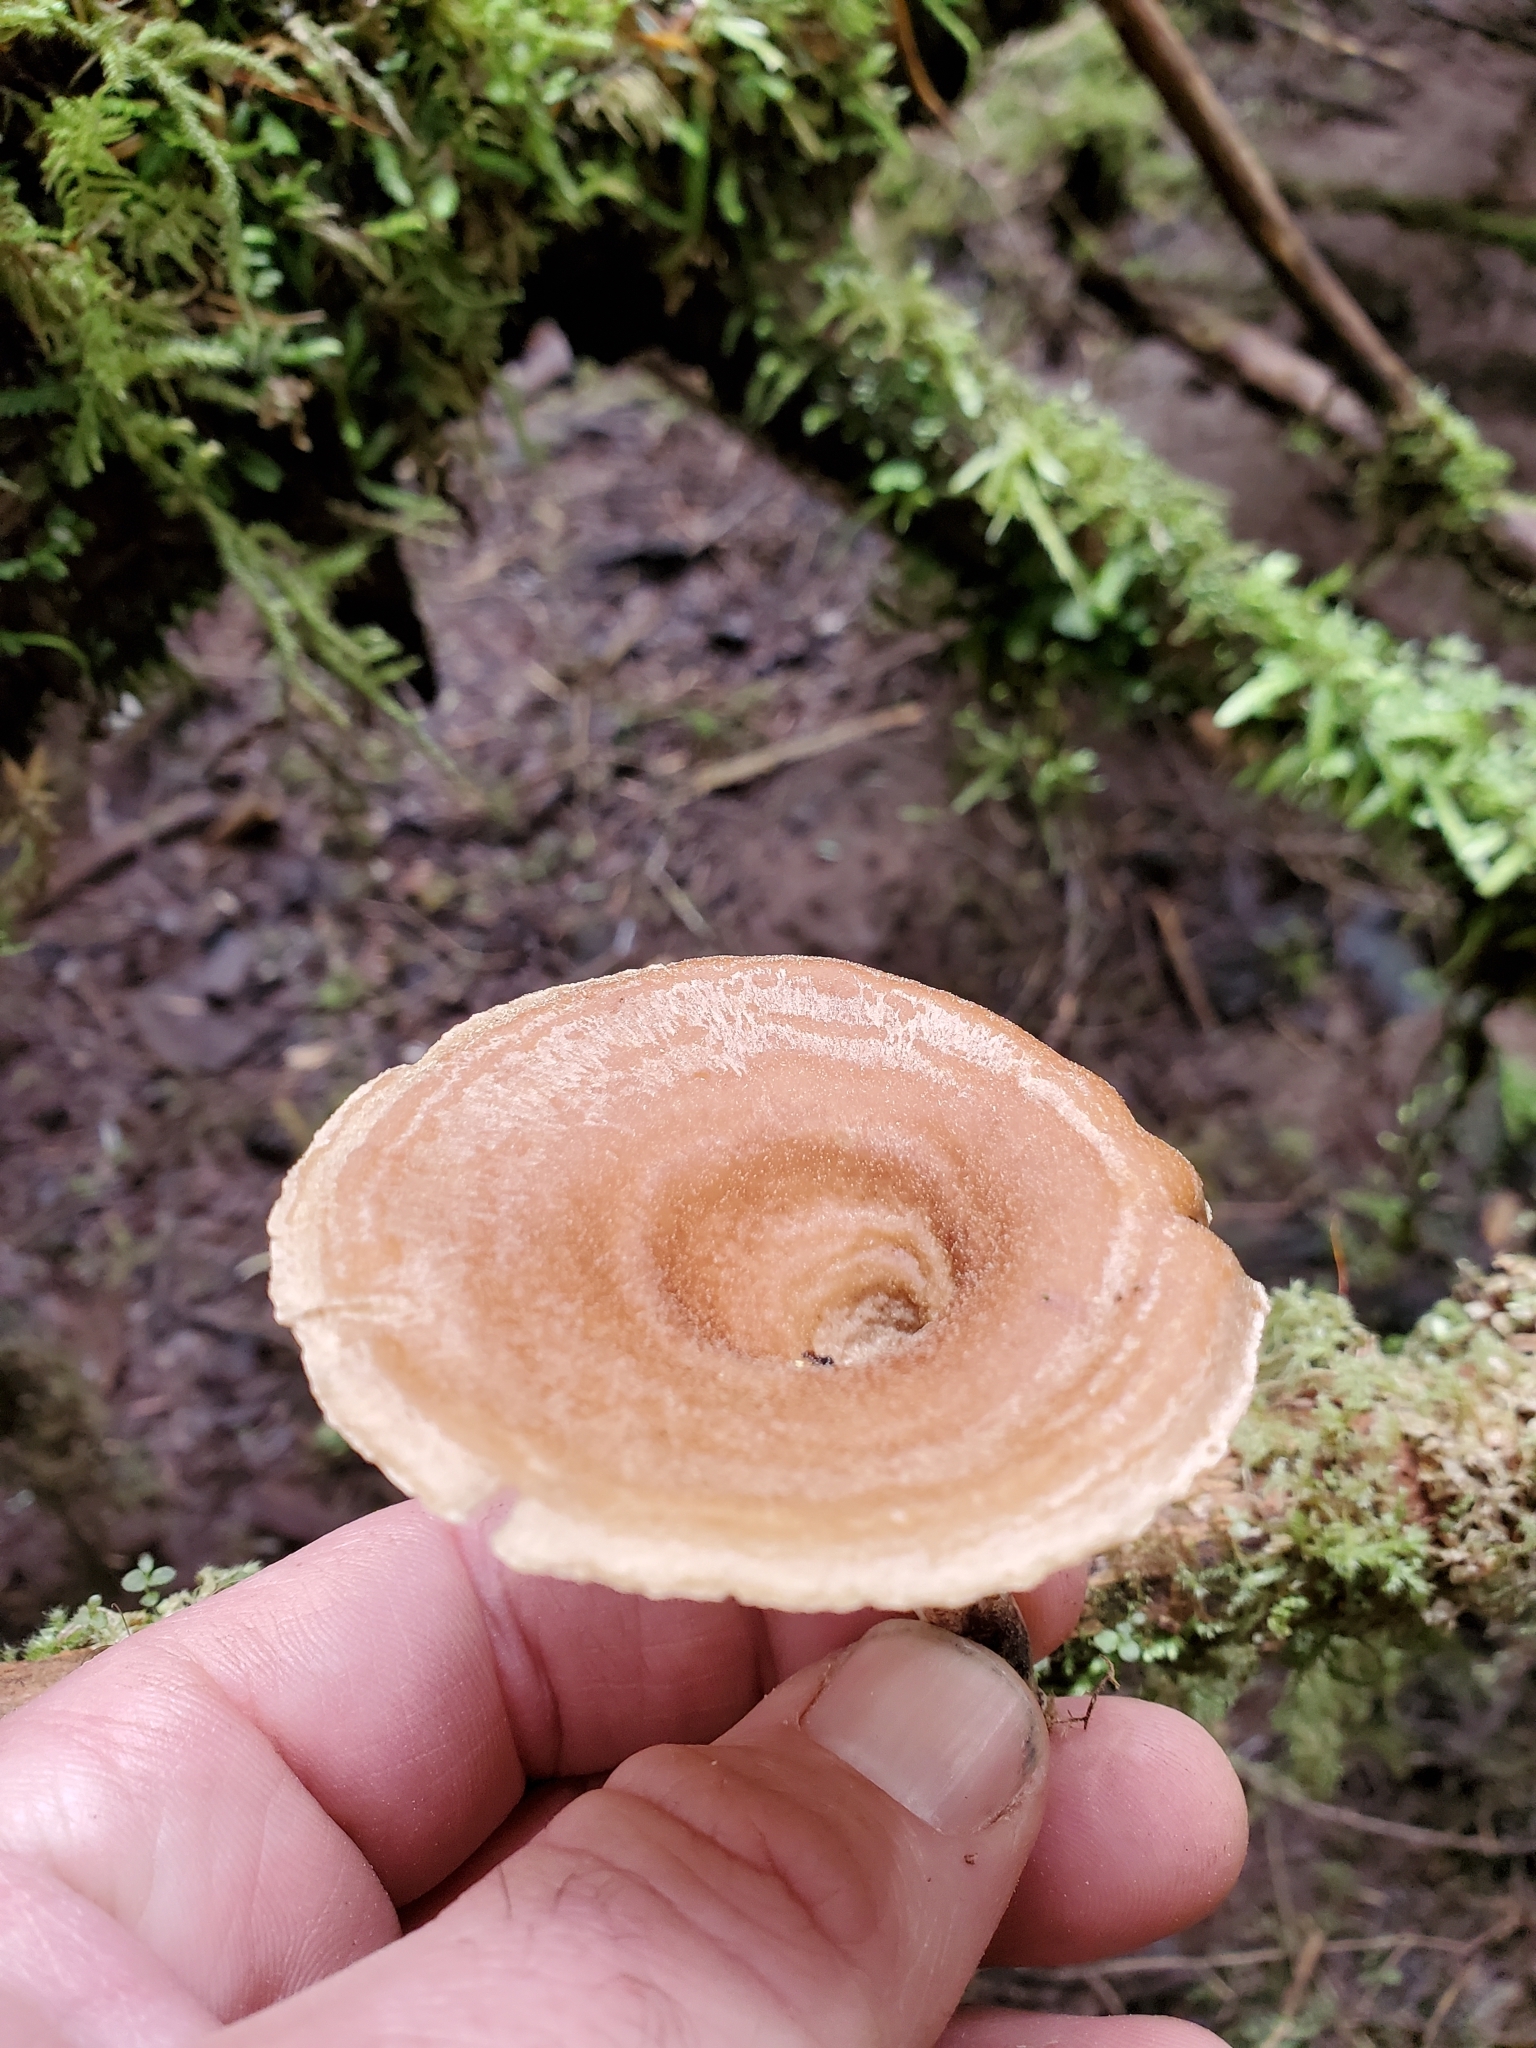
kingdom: Fungi
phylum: Basidiomycota
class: Agaricomycetes
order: Polyporales
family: Polyporaceae
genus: Picipes
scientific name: Picipes badius
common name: Bay polypore
